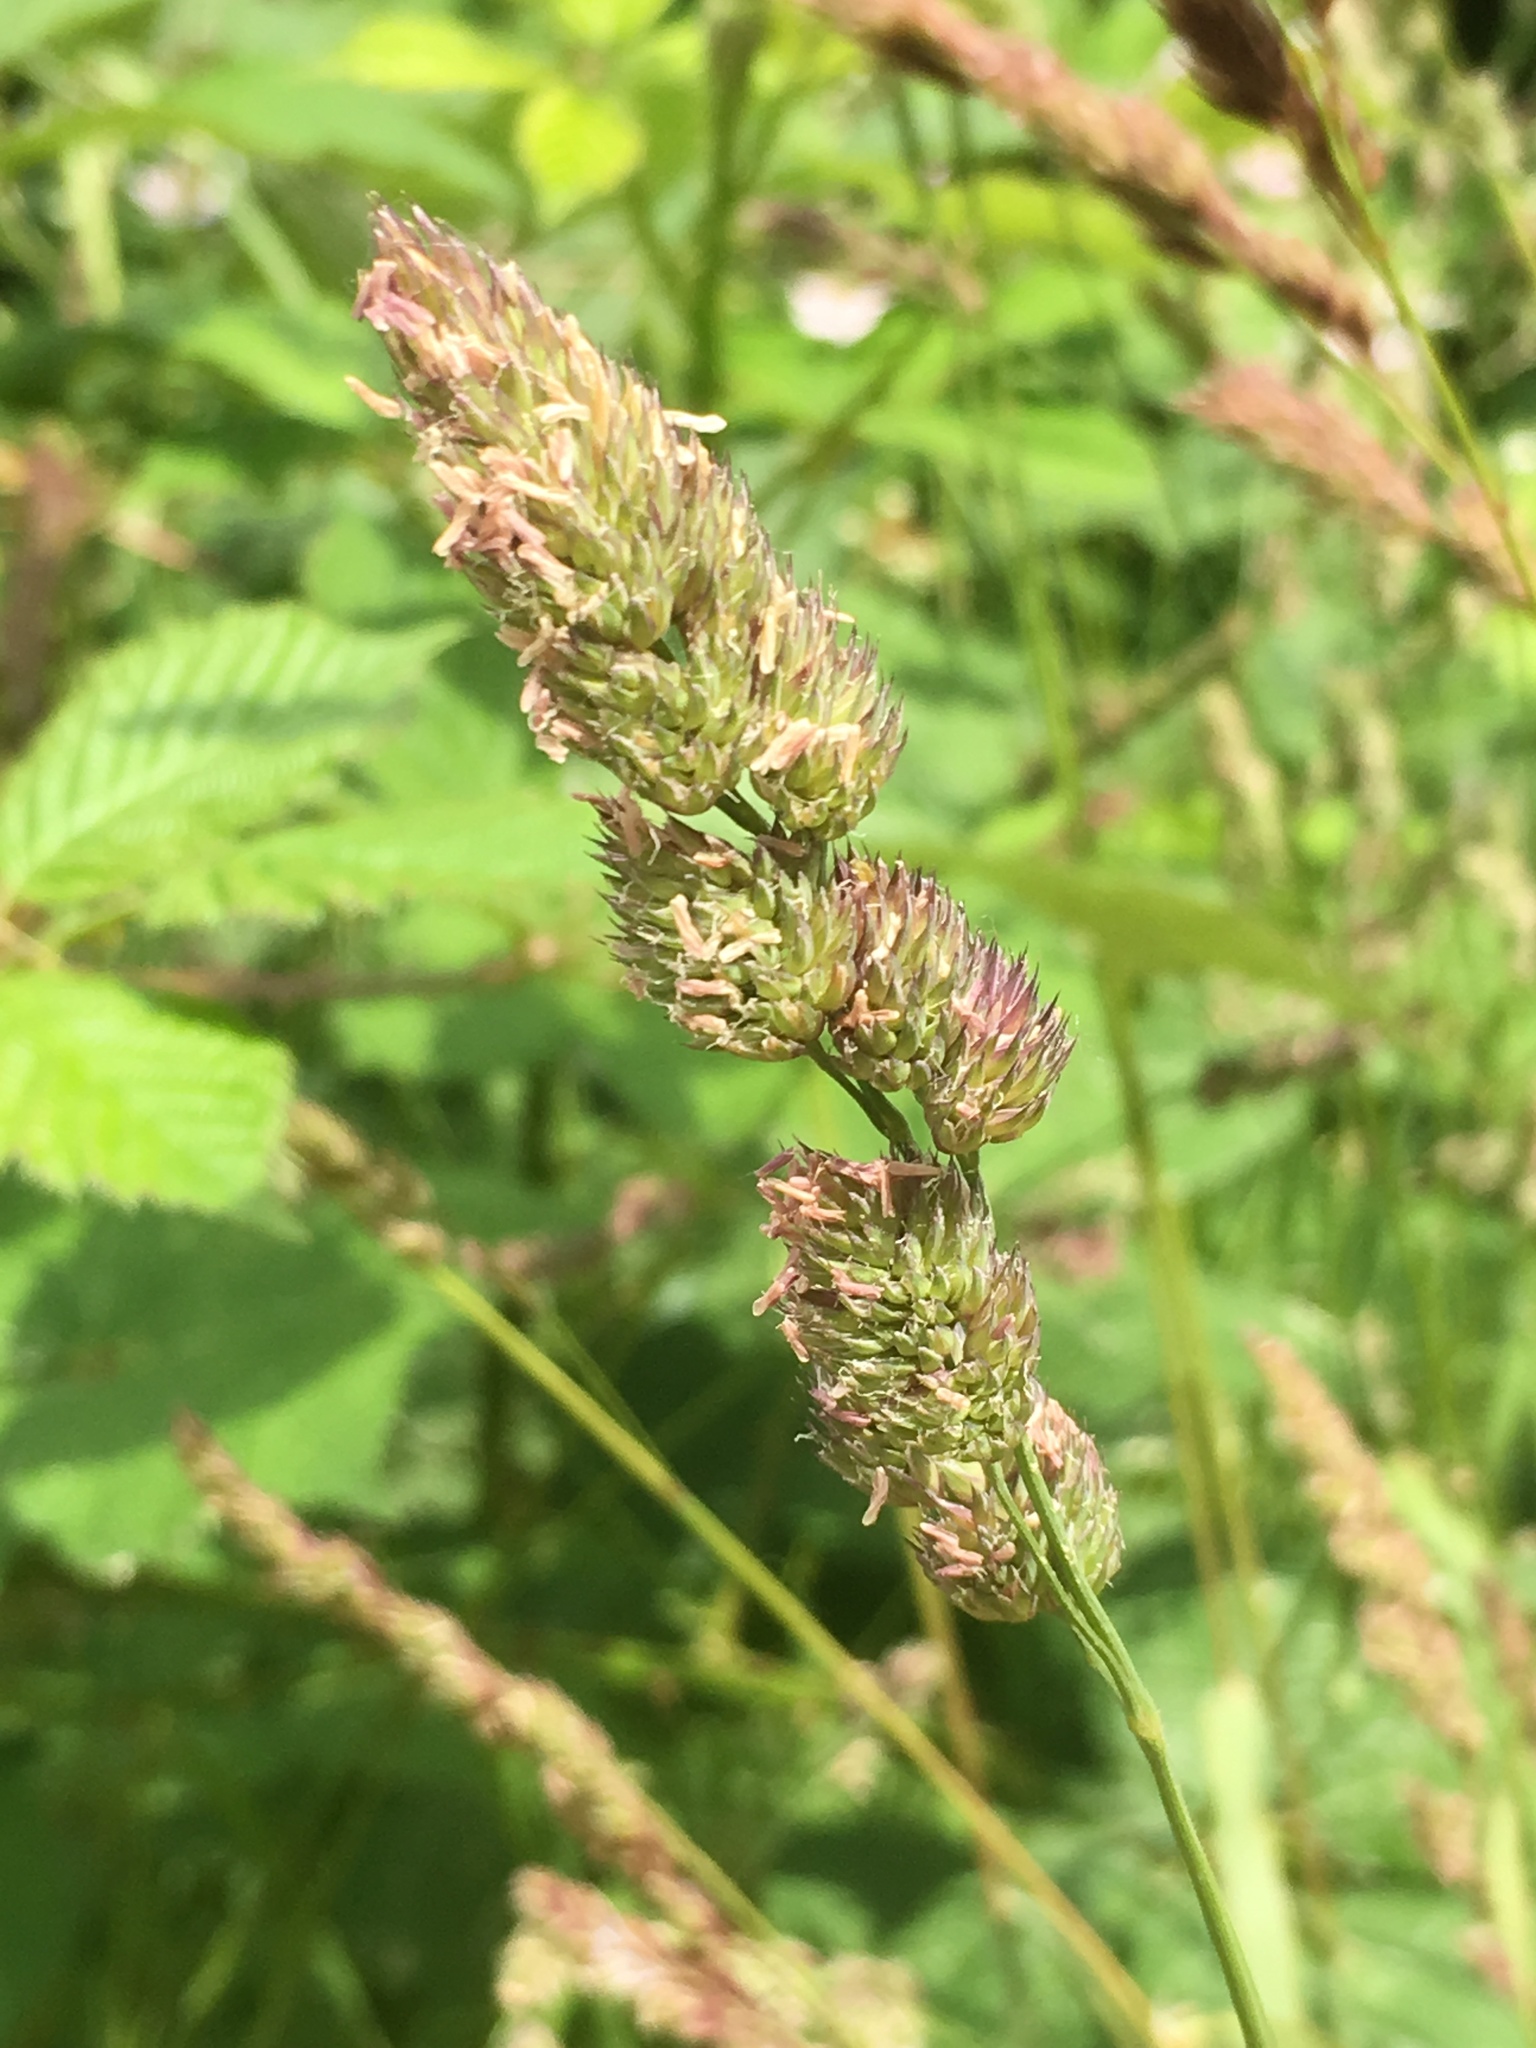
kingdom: Plantae
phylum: Tracheophyta
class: Liliopsida
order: Poales
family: Poaceae
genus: Dactylis
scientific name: Dactylis glomerata
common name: Orchardgrass
